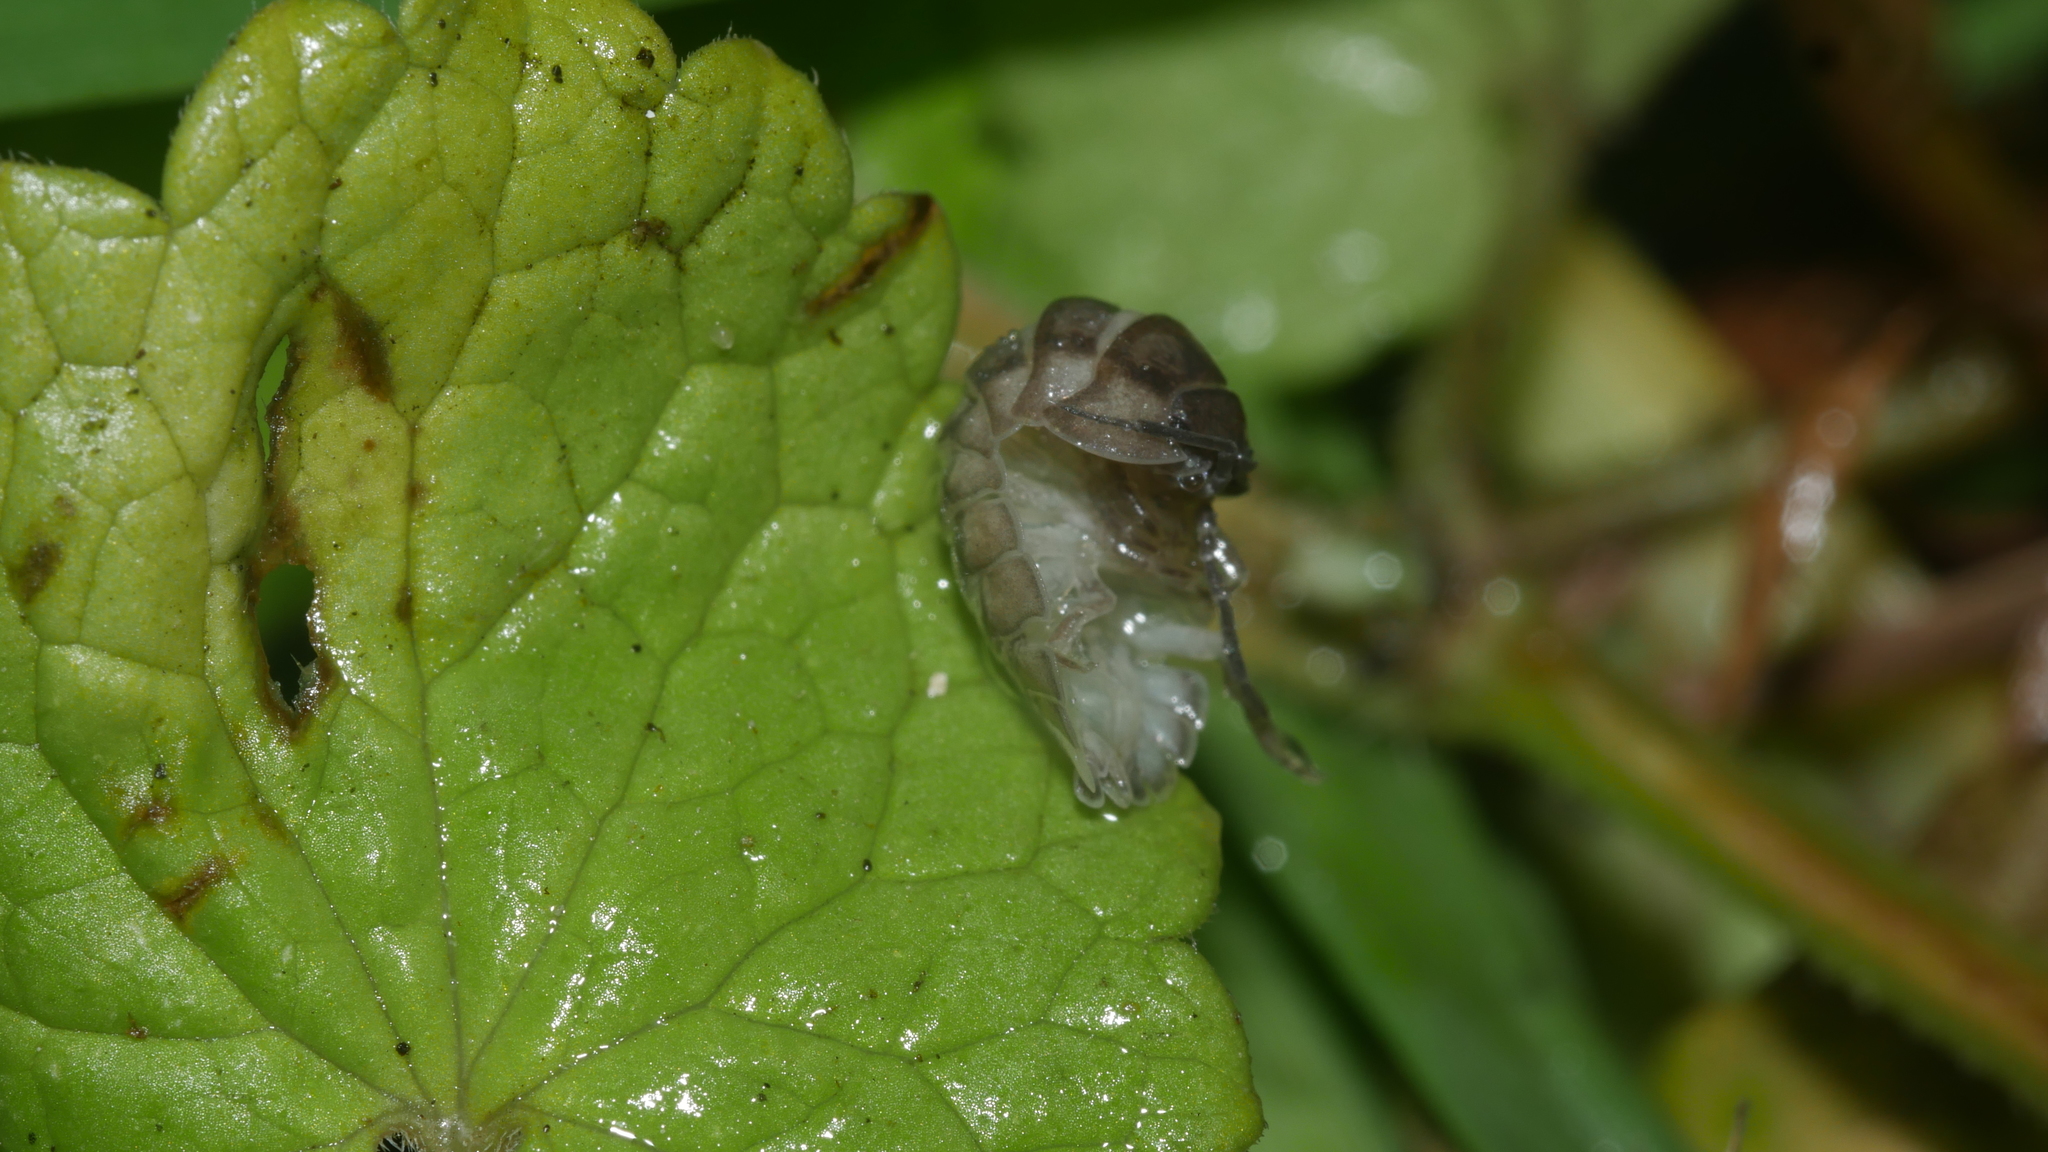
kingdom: Animalia
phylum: Arthropoda
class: Malacostraca
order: Isopoda
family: Armadillidiidae
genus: Armadillidium
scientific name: Armadillidium nasatum
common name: Isopod
